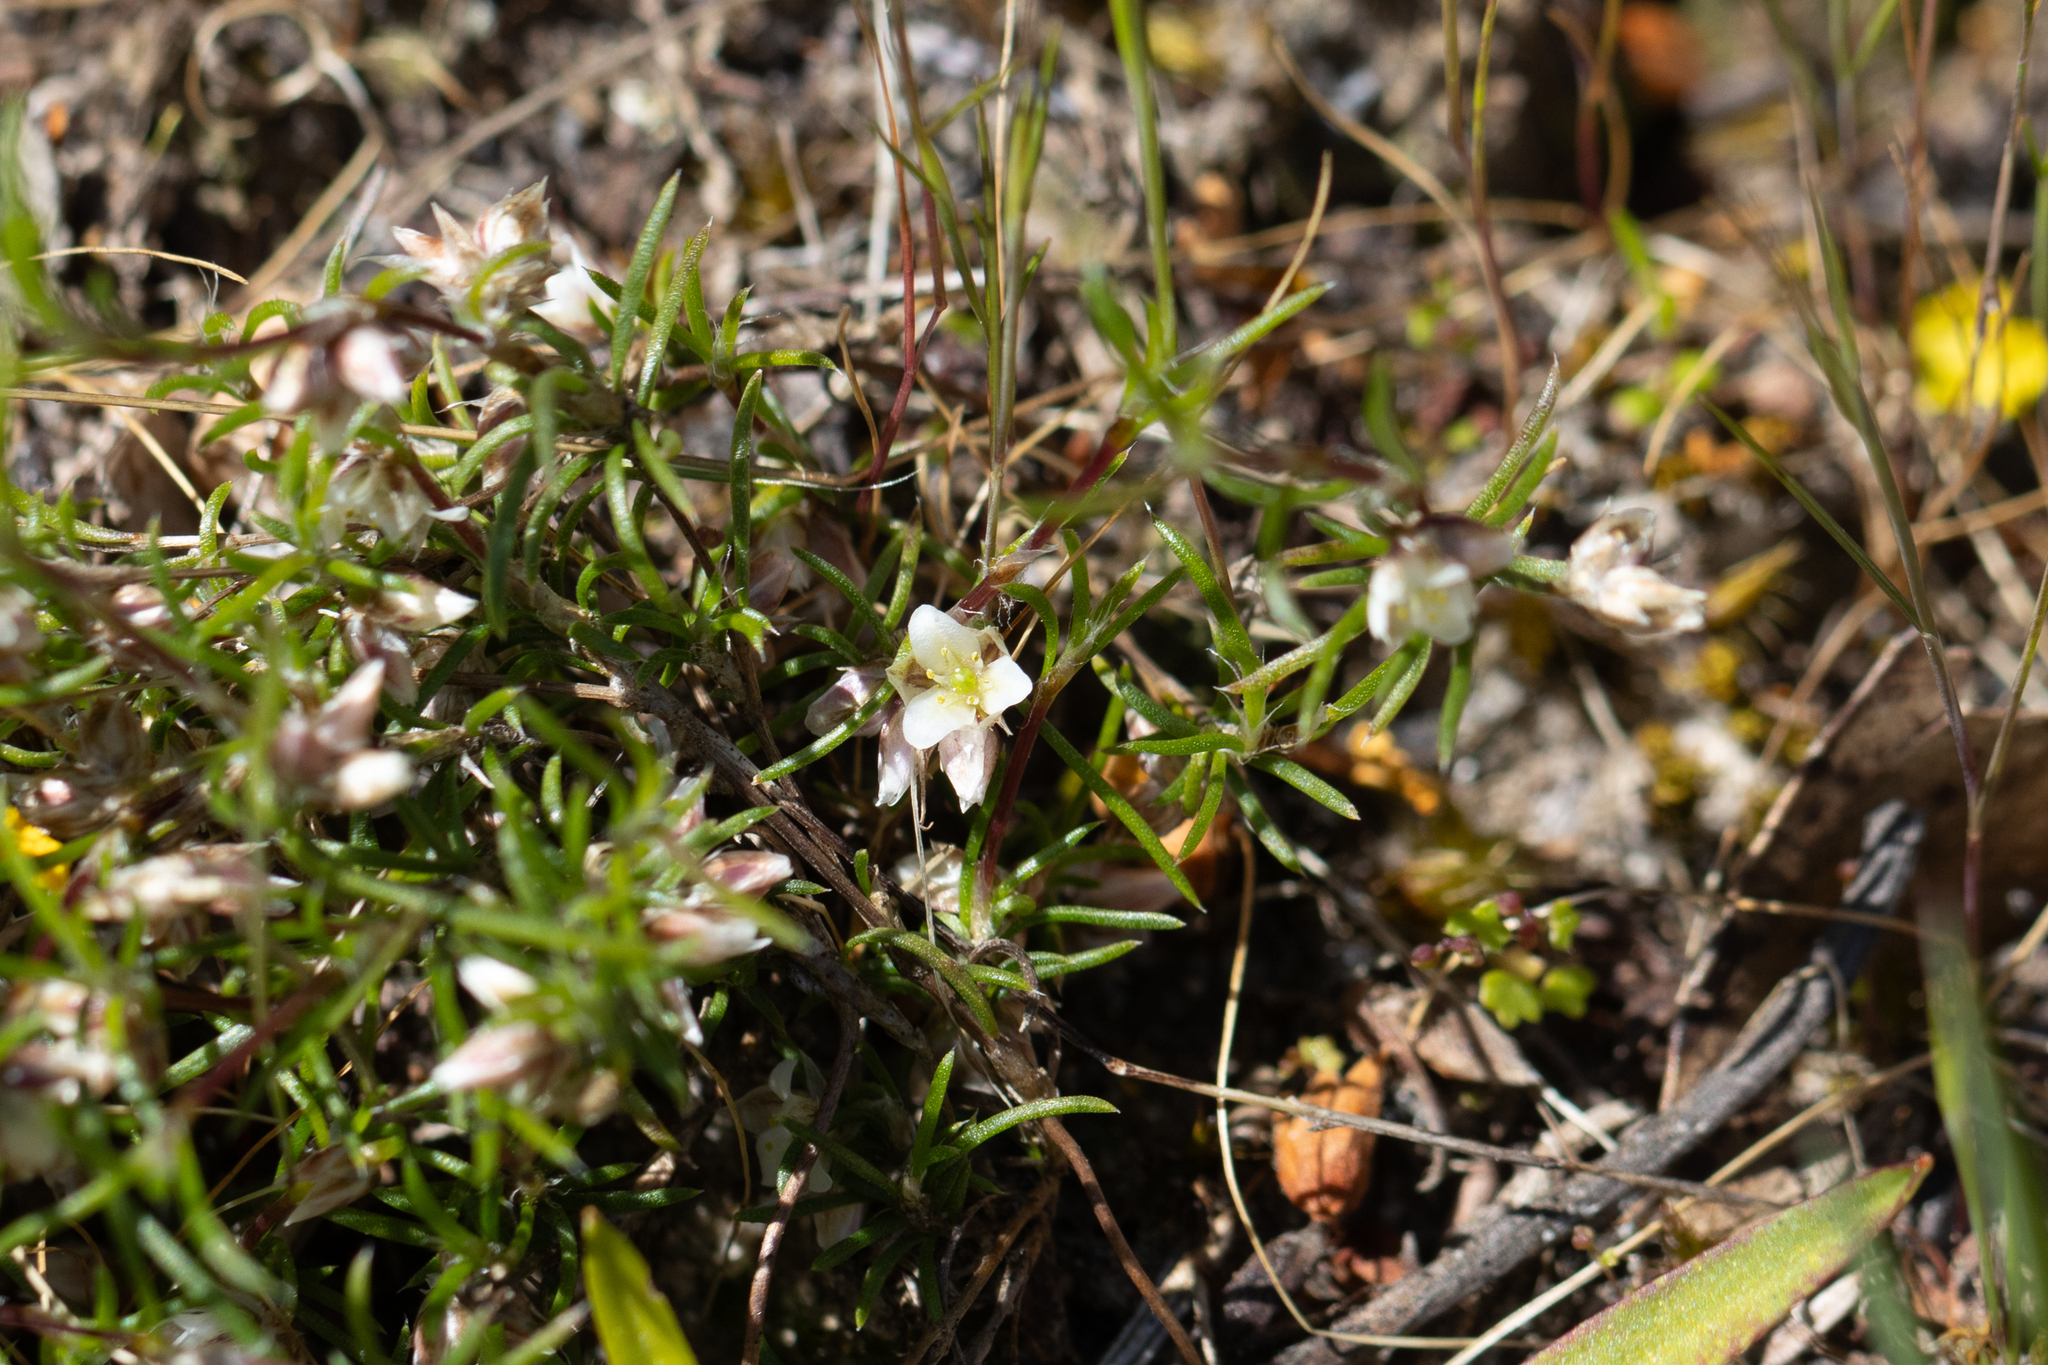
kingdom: Plantae
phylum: Tracheophyta
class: Liliopsida
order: Asparagales
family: Asparagaceae
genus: Laxmannia
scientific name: Laxmannia orientalis
